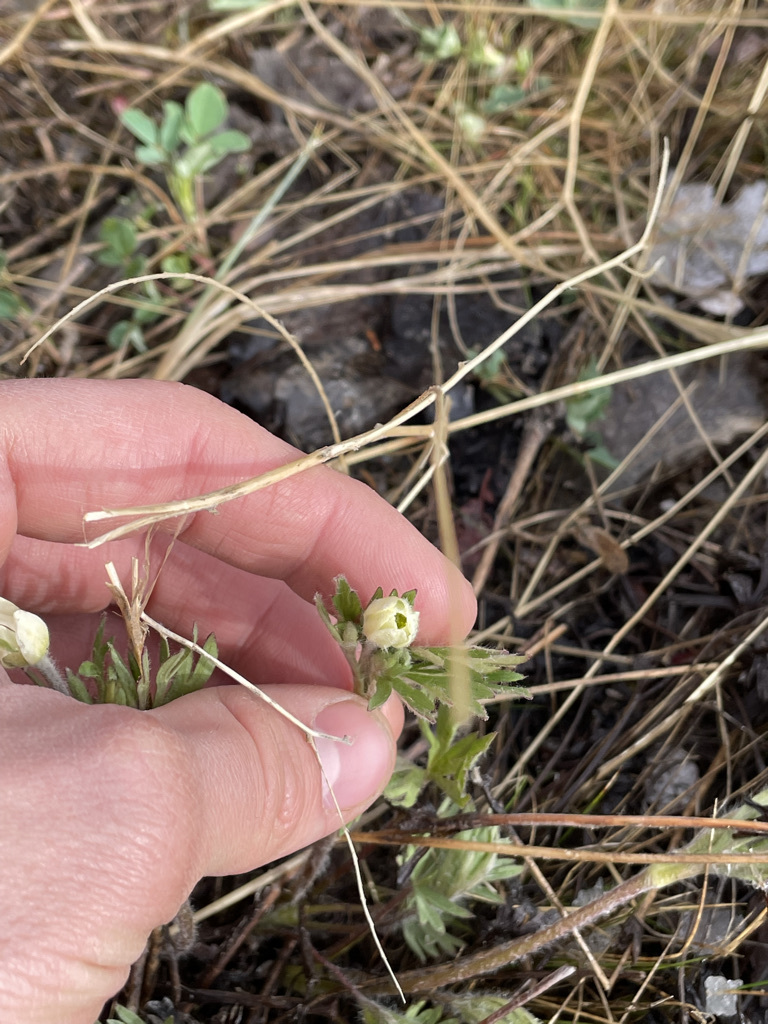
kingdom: Plantae
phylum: Tracheophyta
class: Magnoliopsida
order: Ranunculales
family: Ranunculaceae
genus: Anemone
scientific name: Anemone multifida
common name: Bird's-foot anemone
